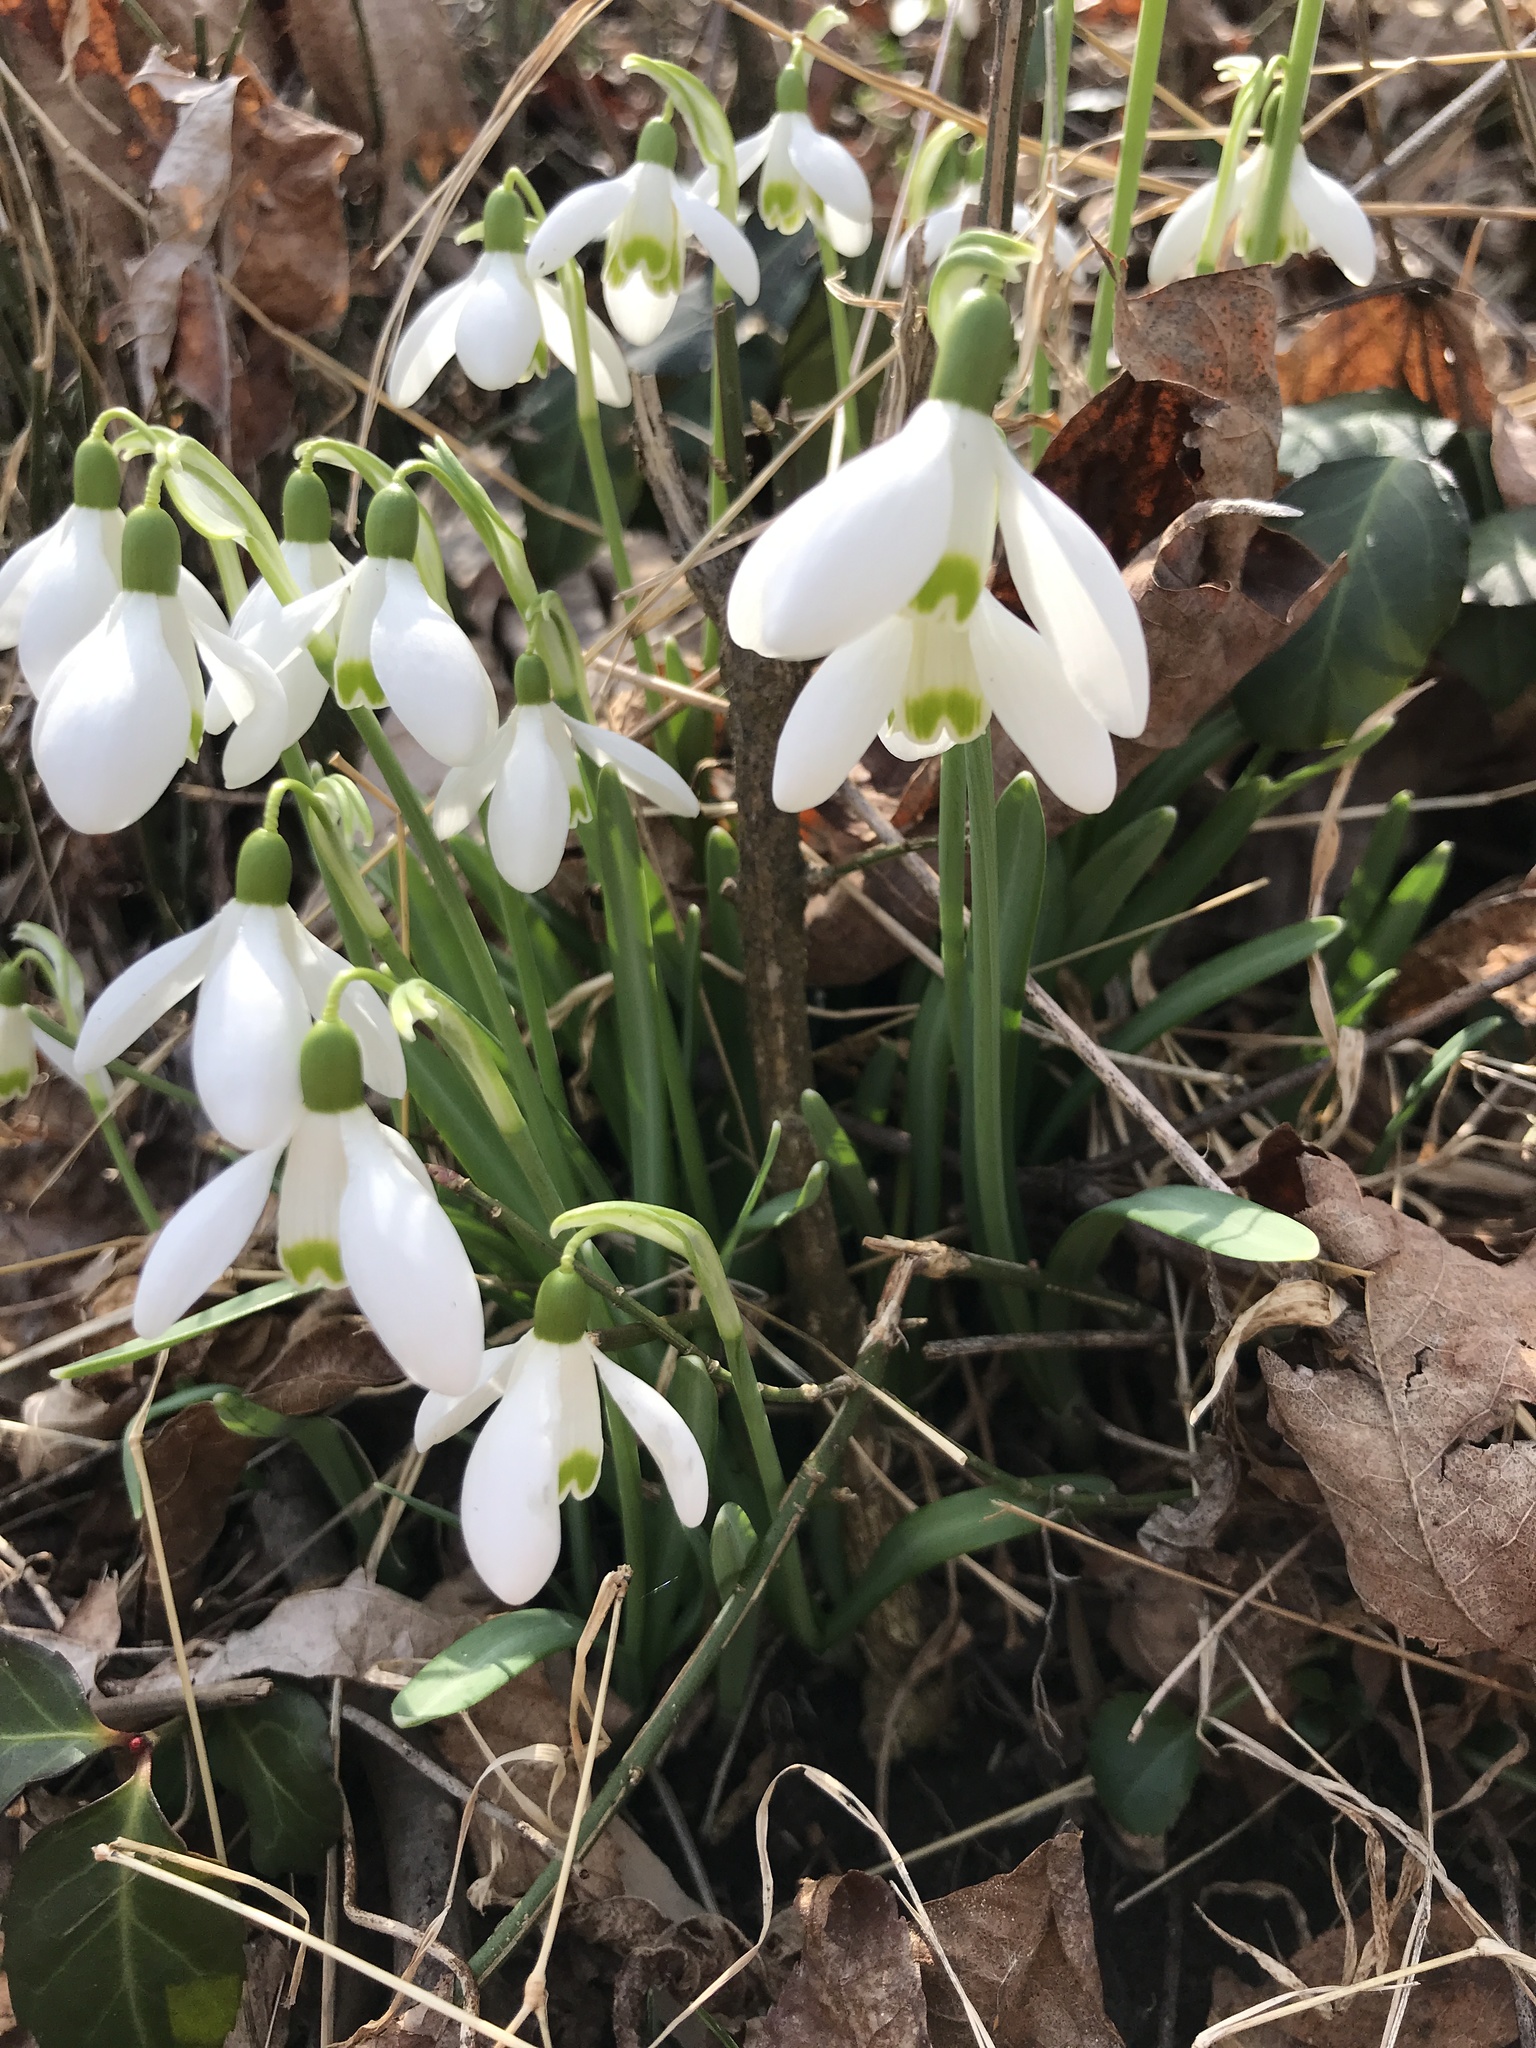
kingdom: Plantae
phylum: Tracheophyta
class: Liliopsida
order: Asparagales
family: Amaryllidaceae
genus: Galanthus
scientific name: Galanthus nivalis
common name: Snowdrop
